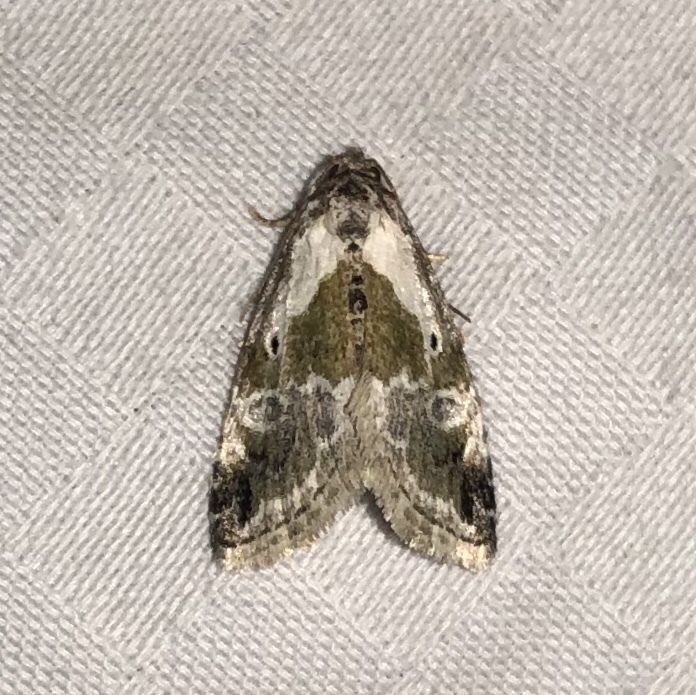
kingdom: Animalia
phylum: Arthropoda
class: Insecta
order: Lepidoptera
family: Noctuidae
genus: Maliattha
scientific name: Maliattha synochitis
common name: Black-dotted glyph
